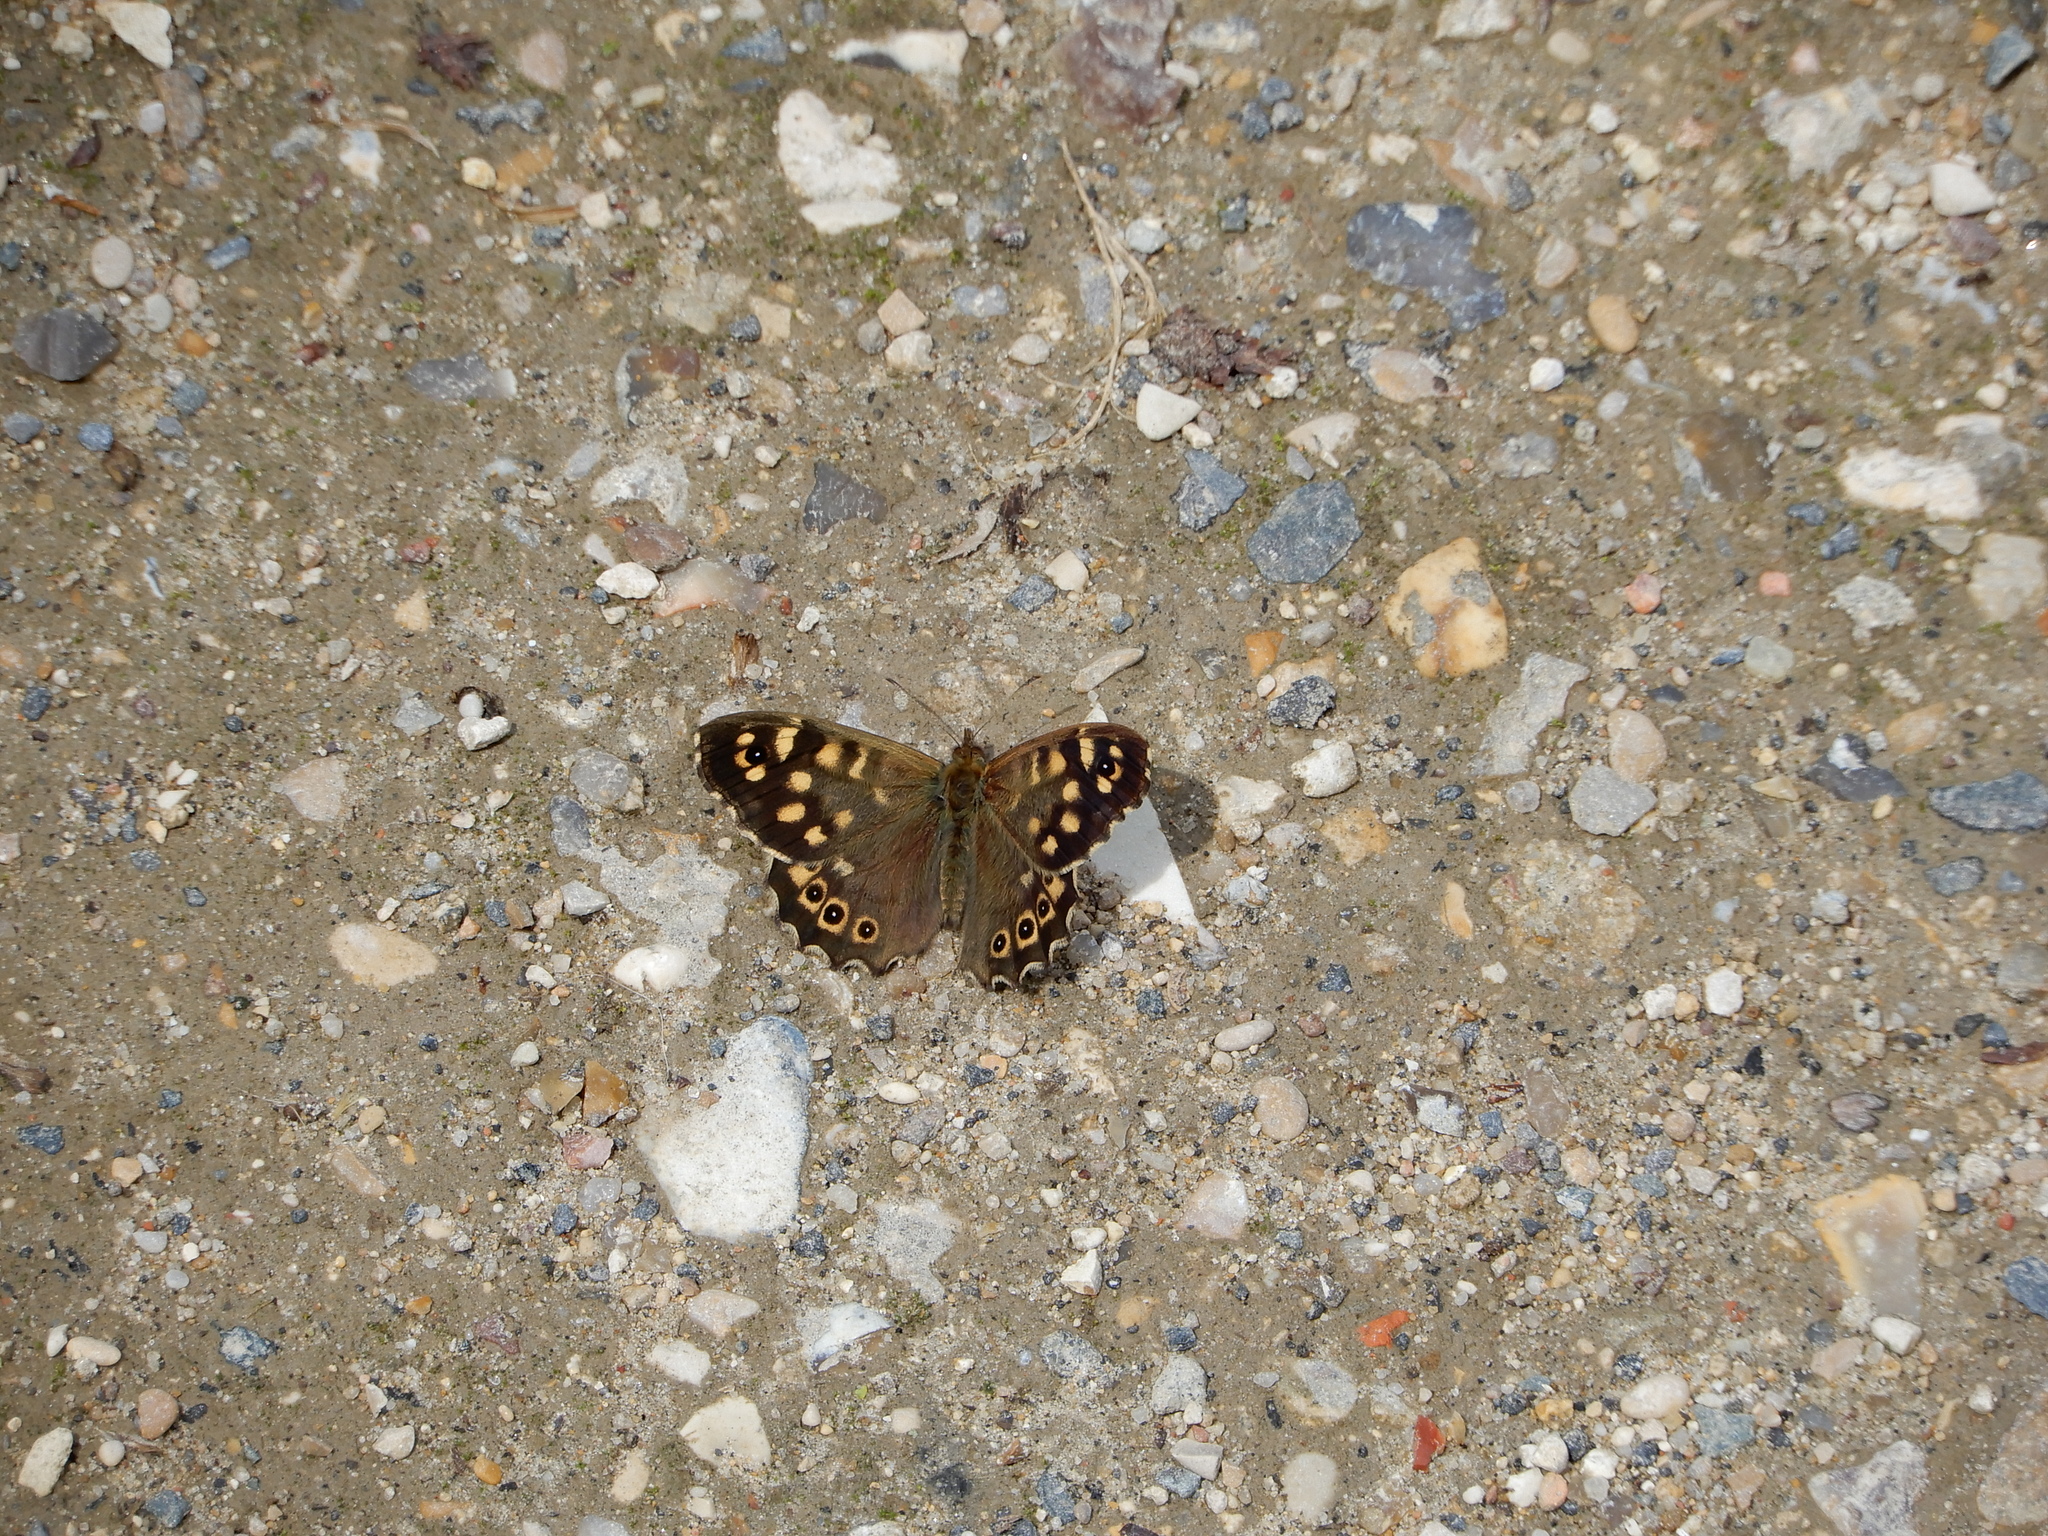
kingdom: Animalia
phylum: Arthropoda
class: Insecta
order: Lepidoptera
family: Nymphalidae
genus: Pararge
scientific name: Pararge aegeria
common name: Speckled wood
